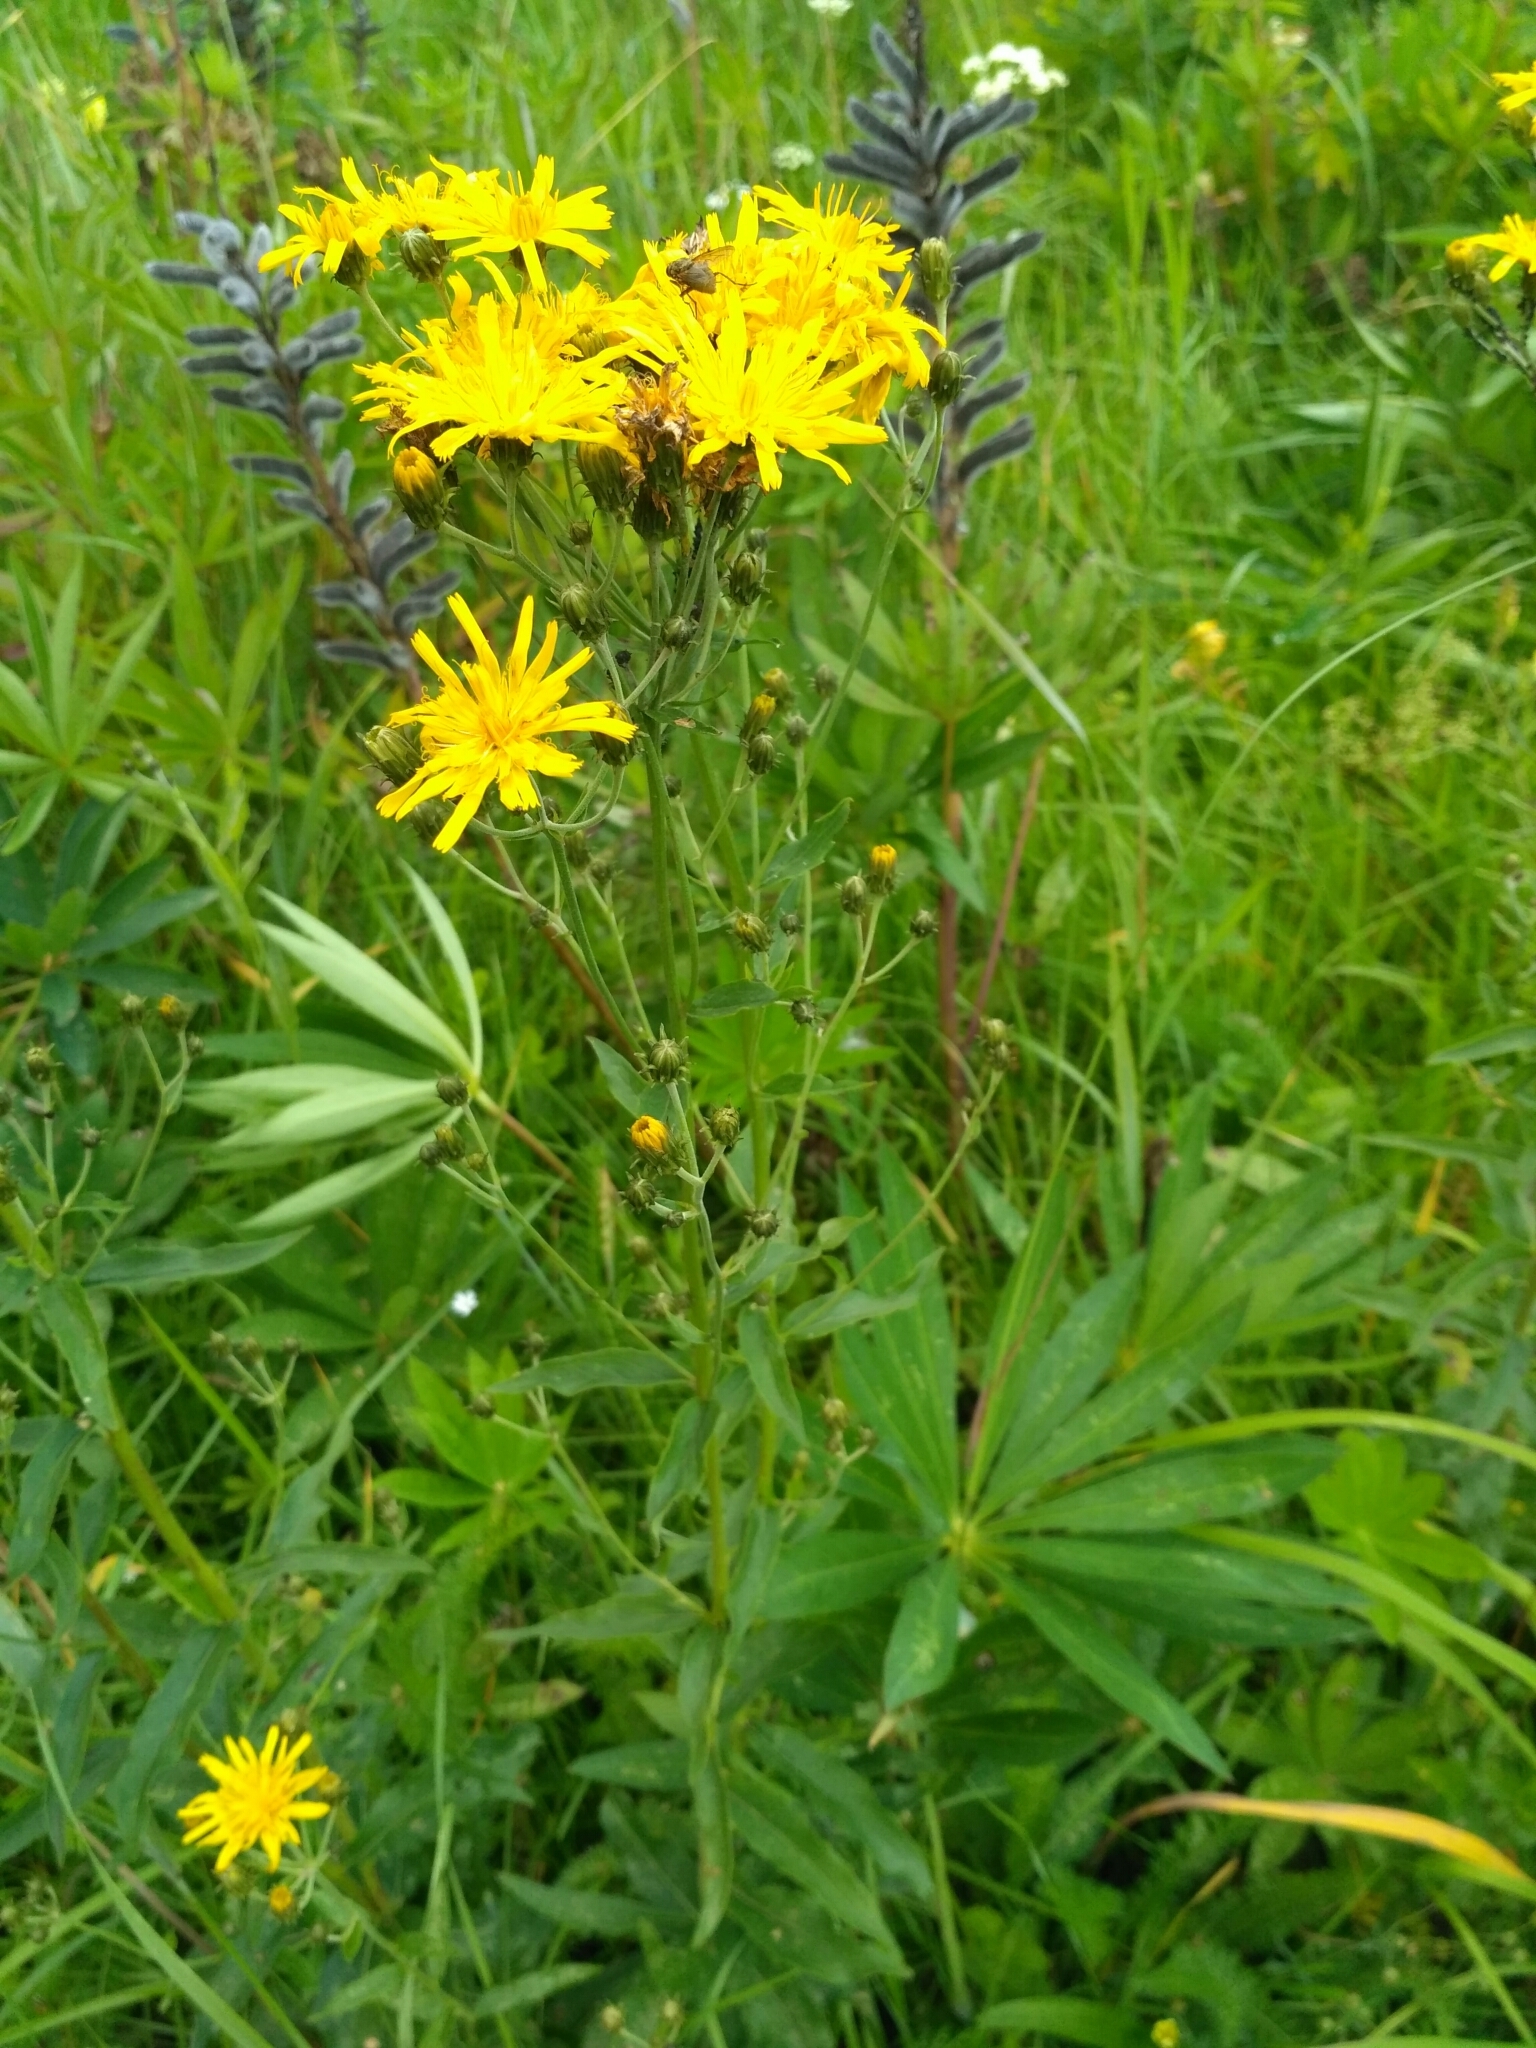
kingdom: Plantae
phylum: Tracheophyta
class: Magnoliopsida
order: Asterales
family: Asteraceae
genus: Hieracium
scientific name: Hieracium umbellatum
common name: Northern hawkweed
